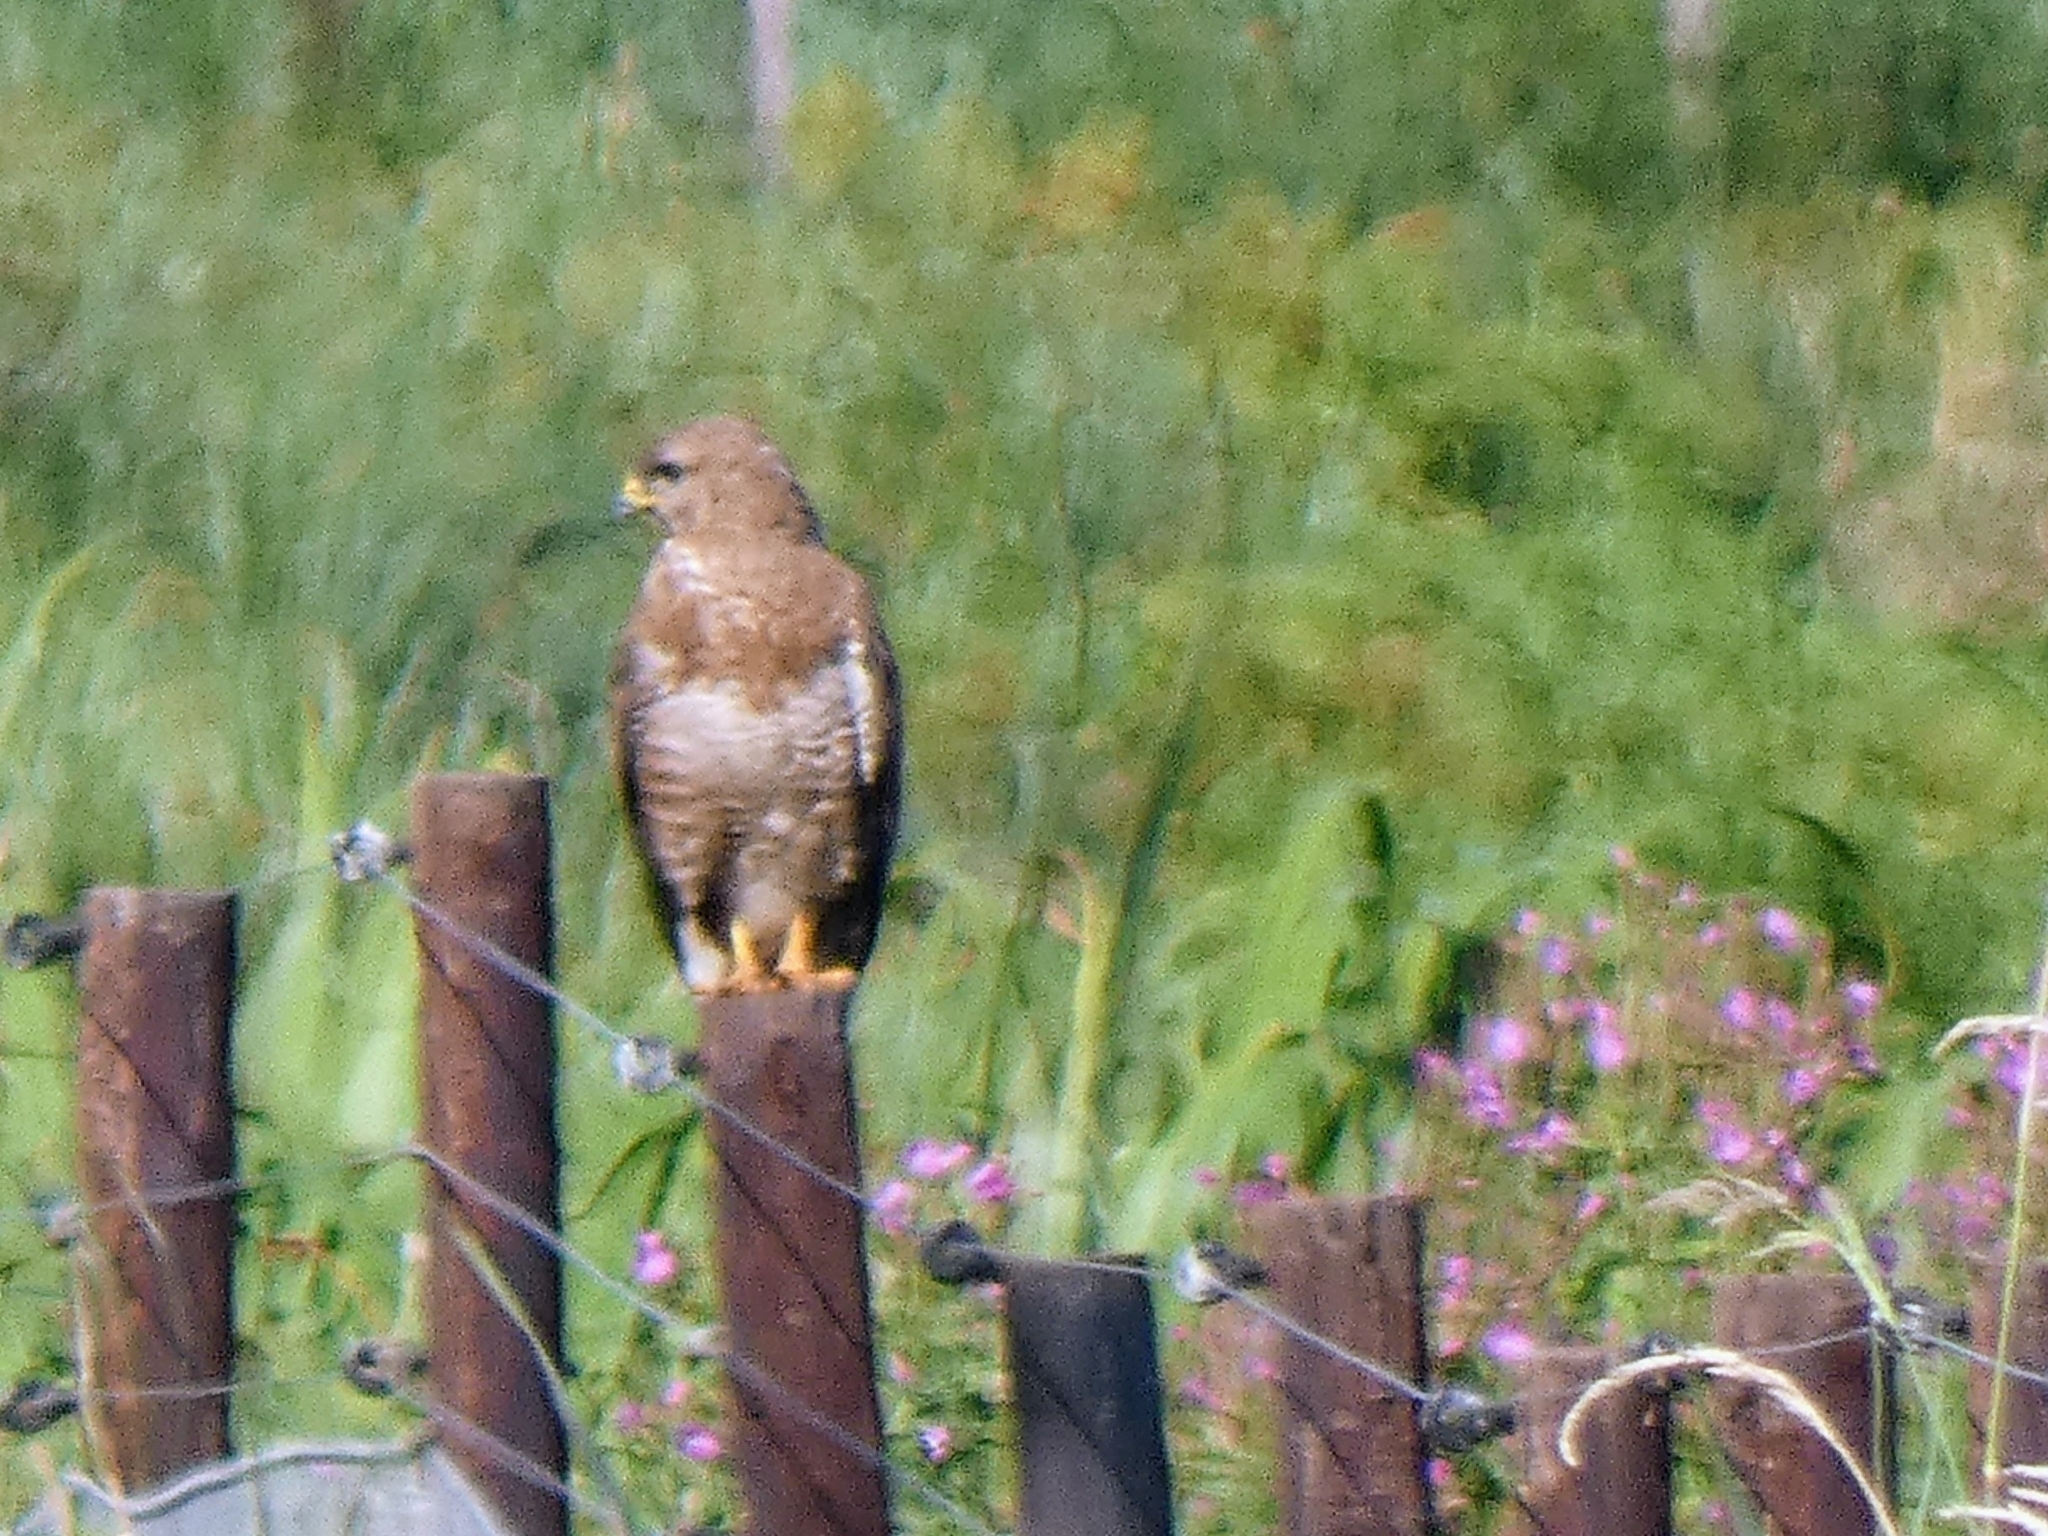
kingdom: Animalia
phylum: Chordata
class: Aves
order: Accipitriformes
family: Accipitridae
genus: Buteo
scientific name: Buteo buteo
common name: Common buzzard
